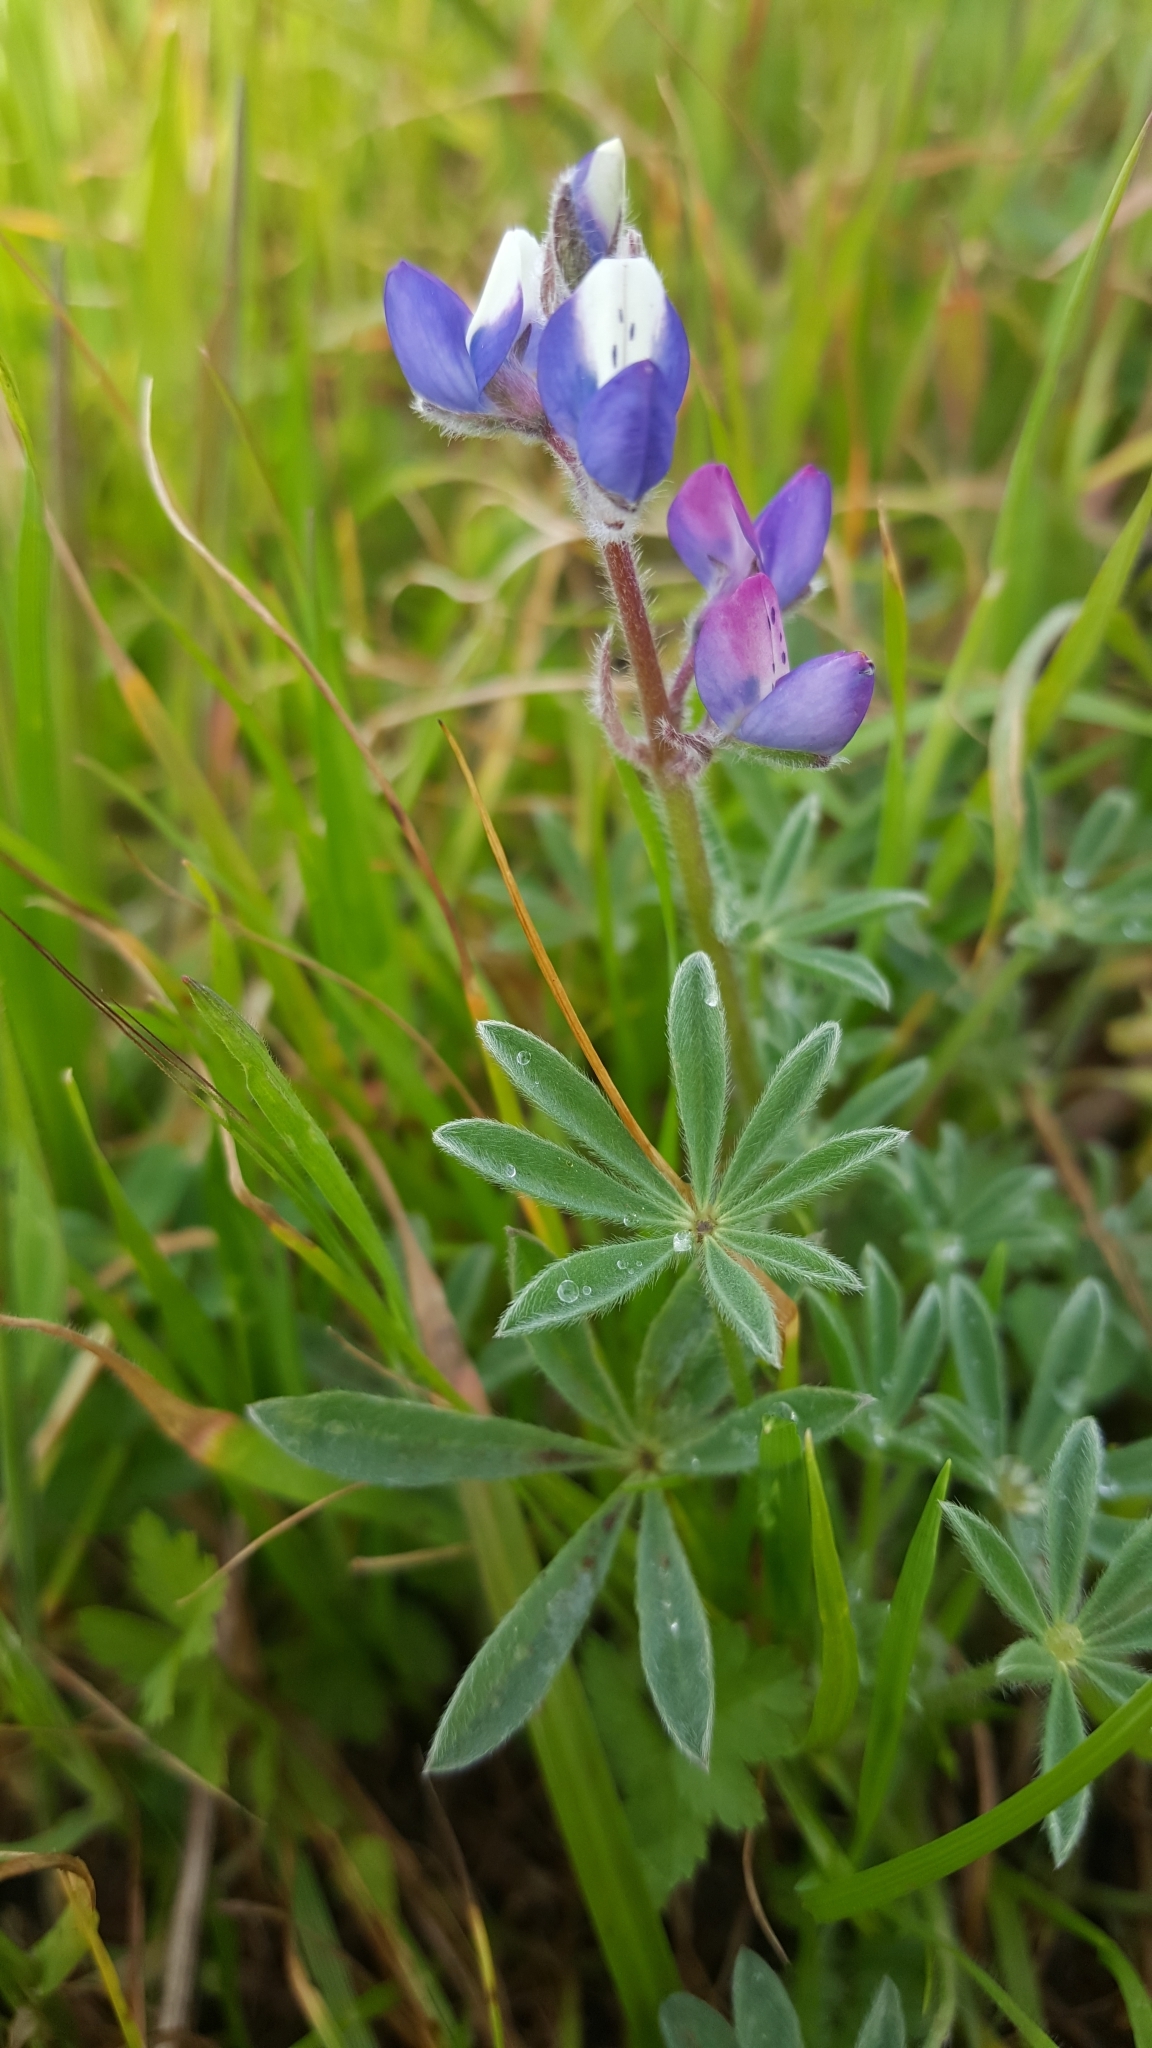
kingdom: Plantae
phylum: Tracheophyta
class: Magnoliopsida
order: Fabales
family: Fabaceae
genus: Lupinus
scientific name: Lupinus bicolor
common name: Miniature lupine
